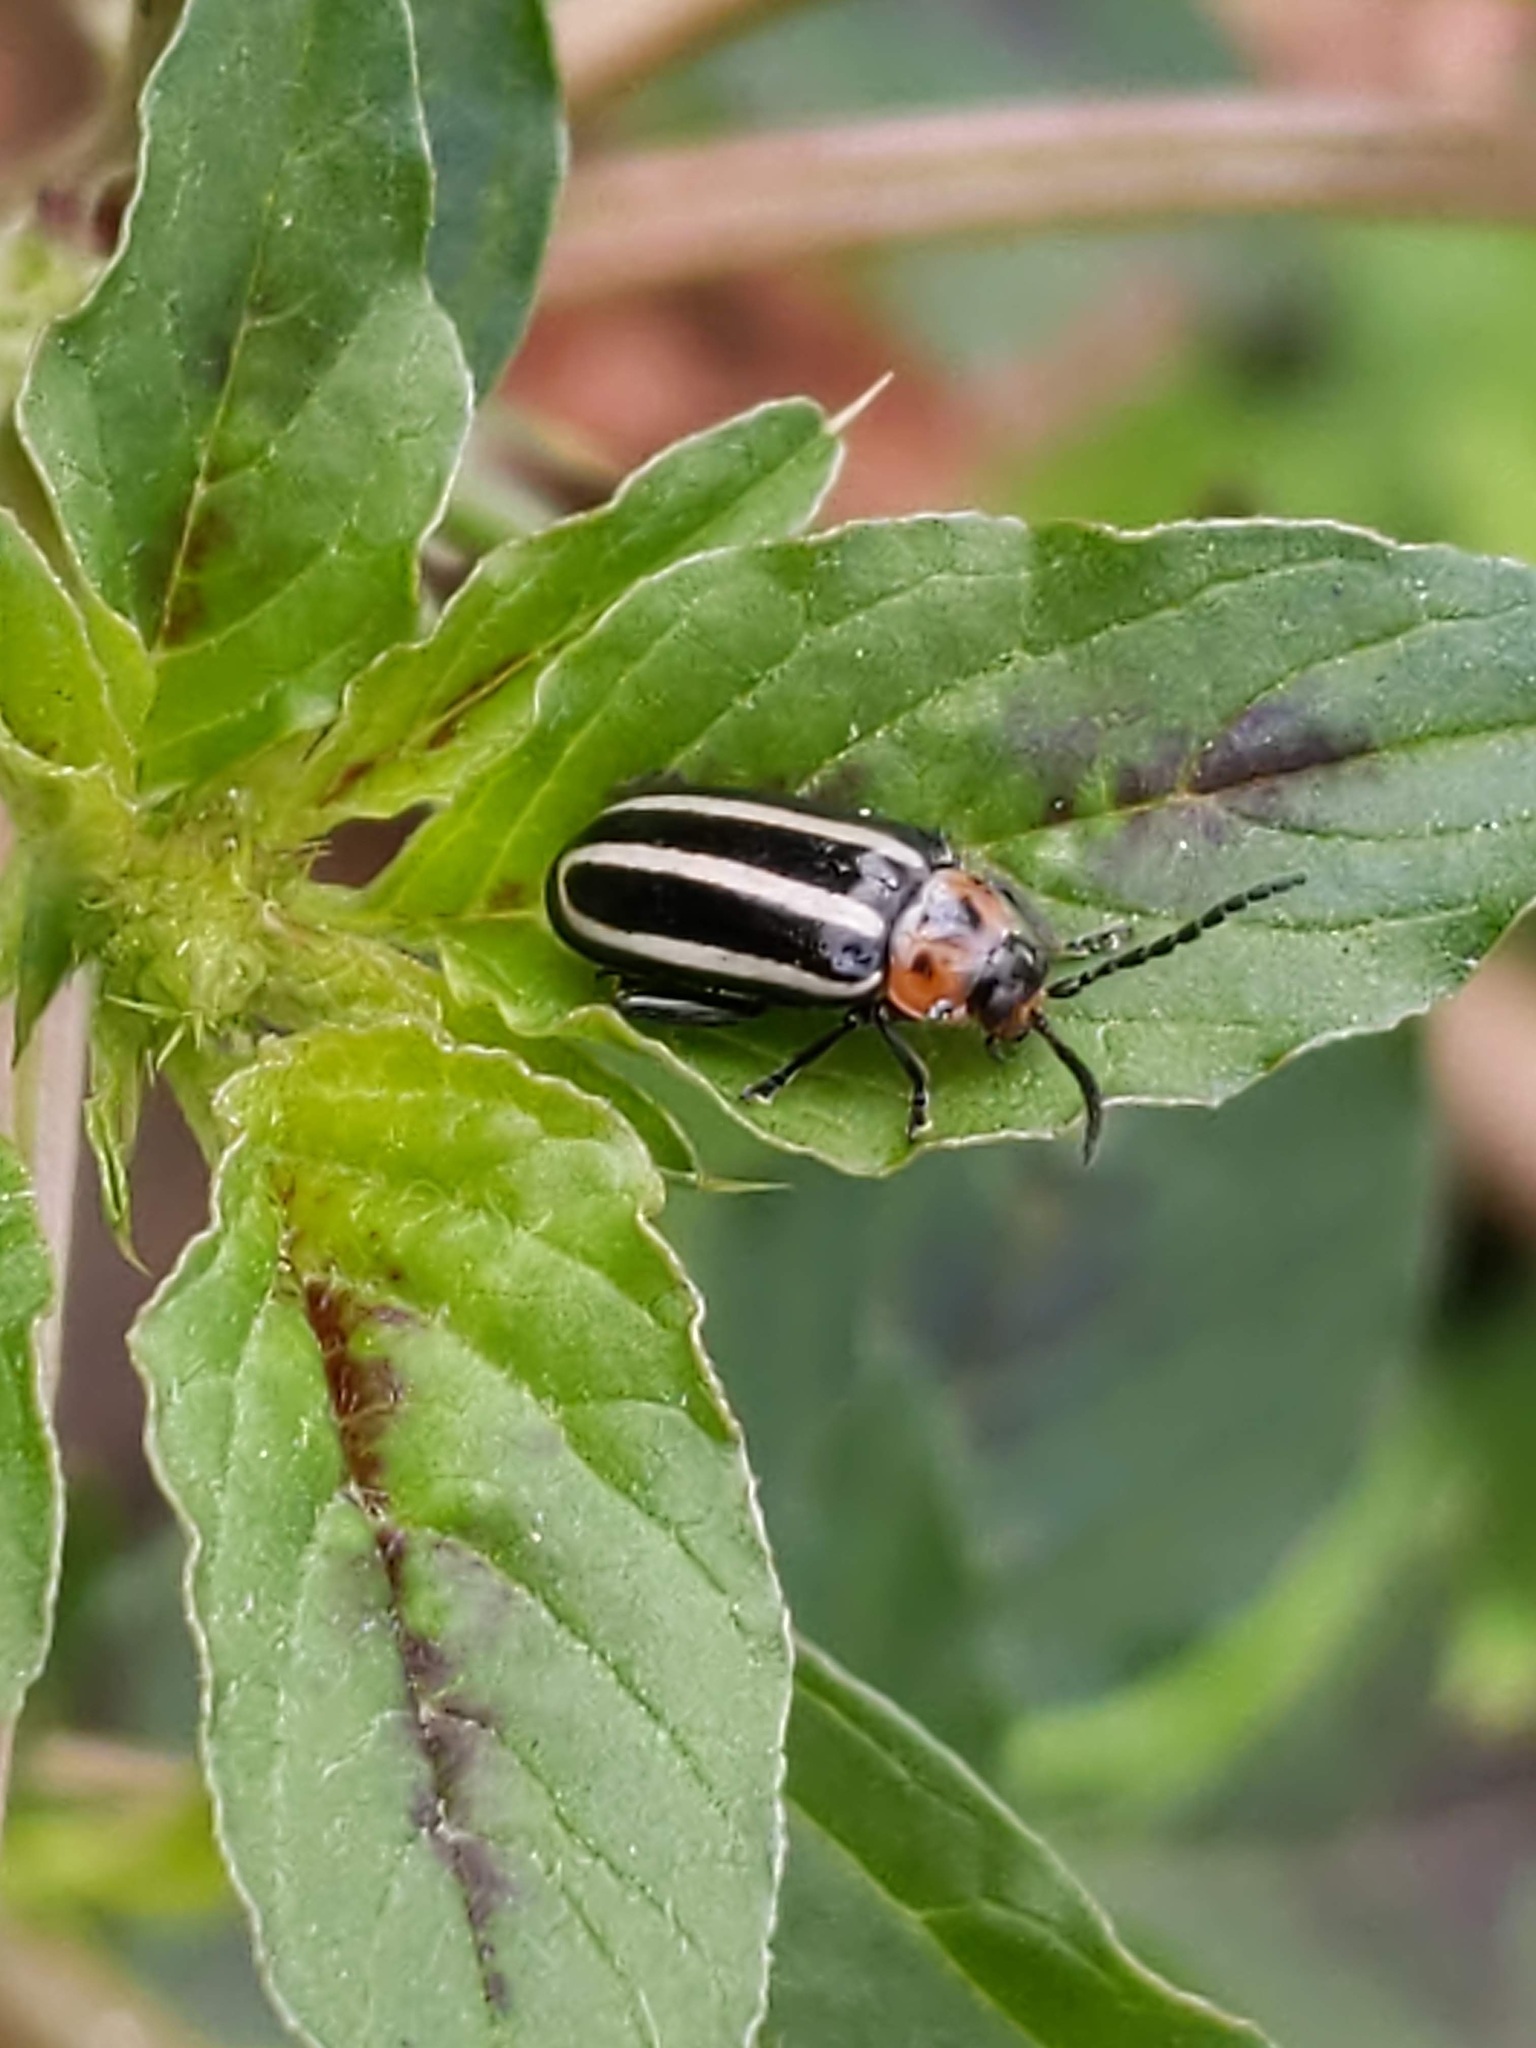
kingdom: Animalia
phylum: Arthropoda
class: Insecta
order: Coleoptera
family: Chrysomelidae
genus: Disonycha
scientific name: Disonycha glabrata
